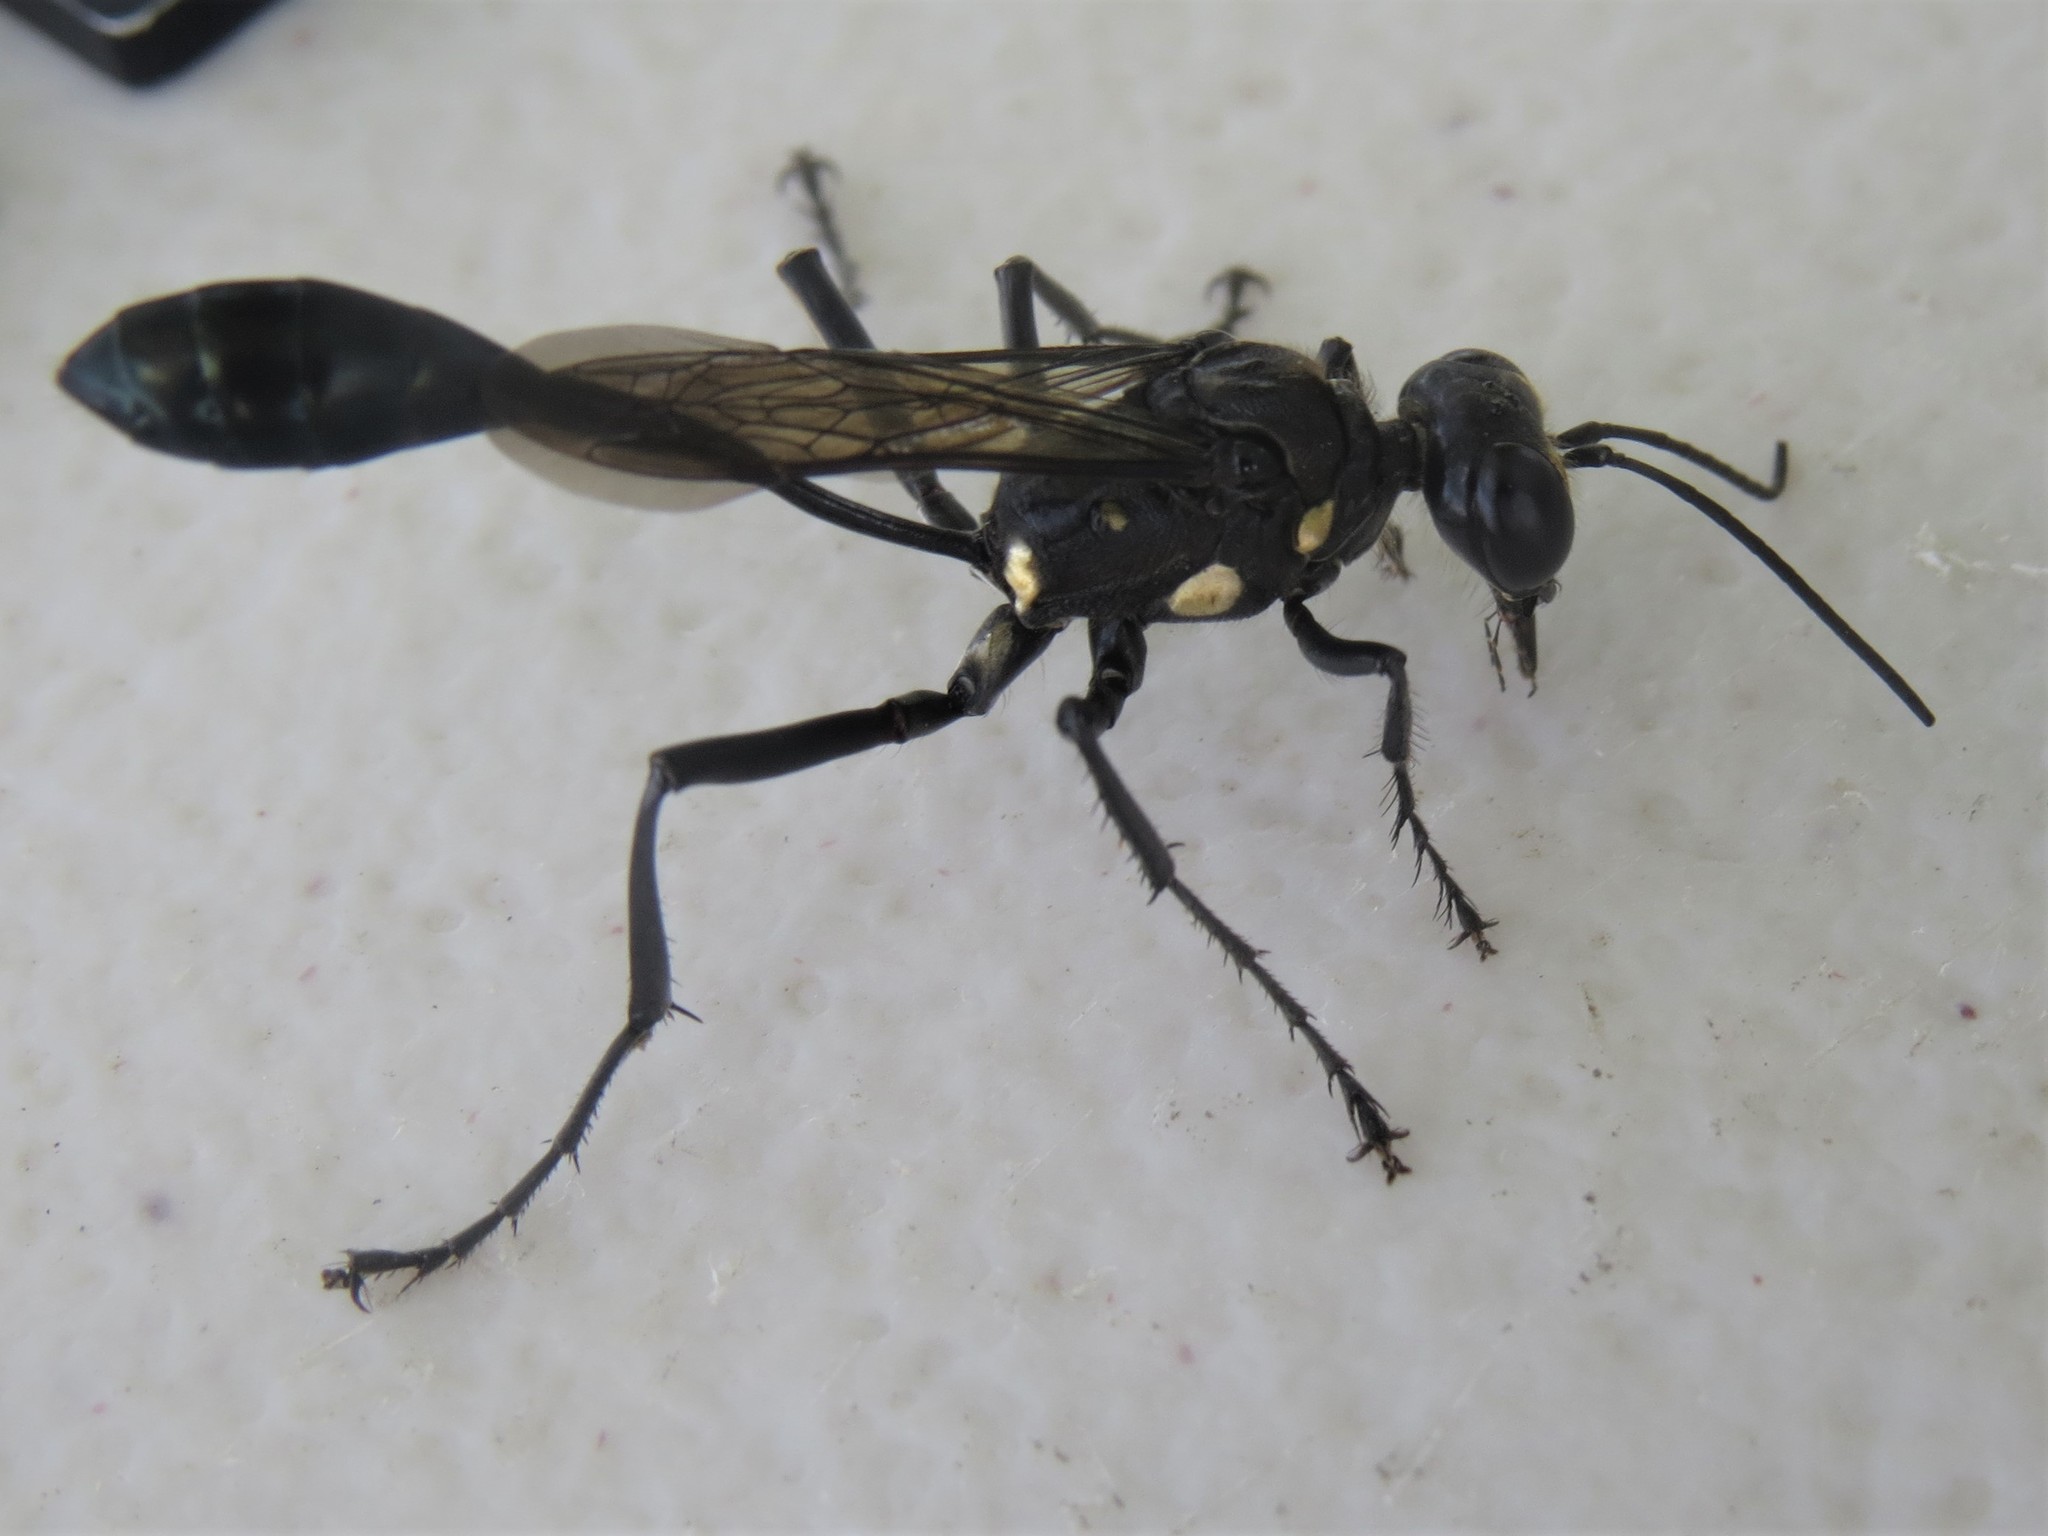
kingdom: Animalia
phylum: Arthropoda
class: Insecta
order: Hymenoptera
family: Sphecidae
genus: Eremnophila
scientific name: Eremnophila aureonotata
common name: Gold-marked thread-waisted wasp
